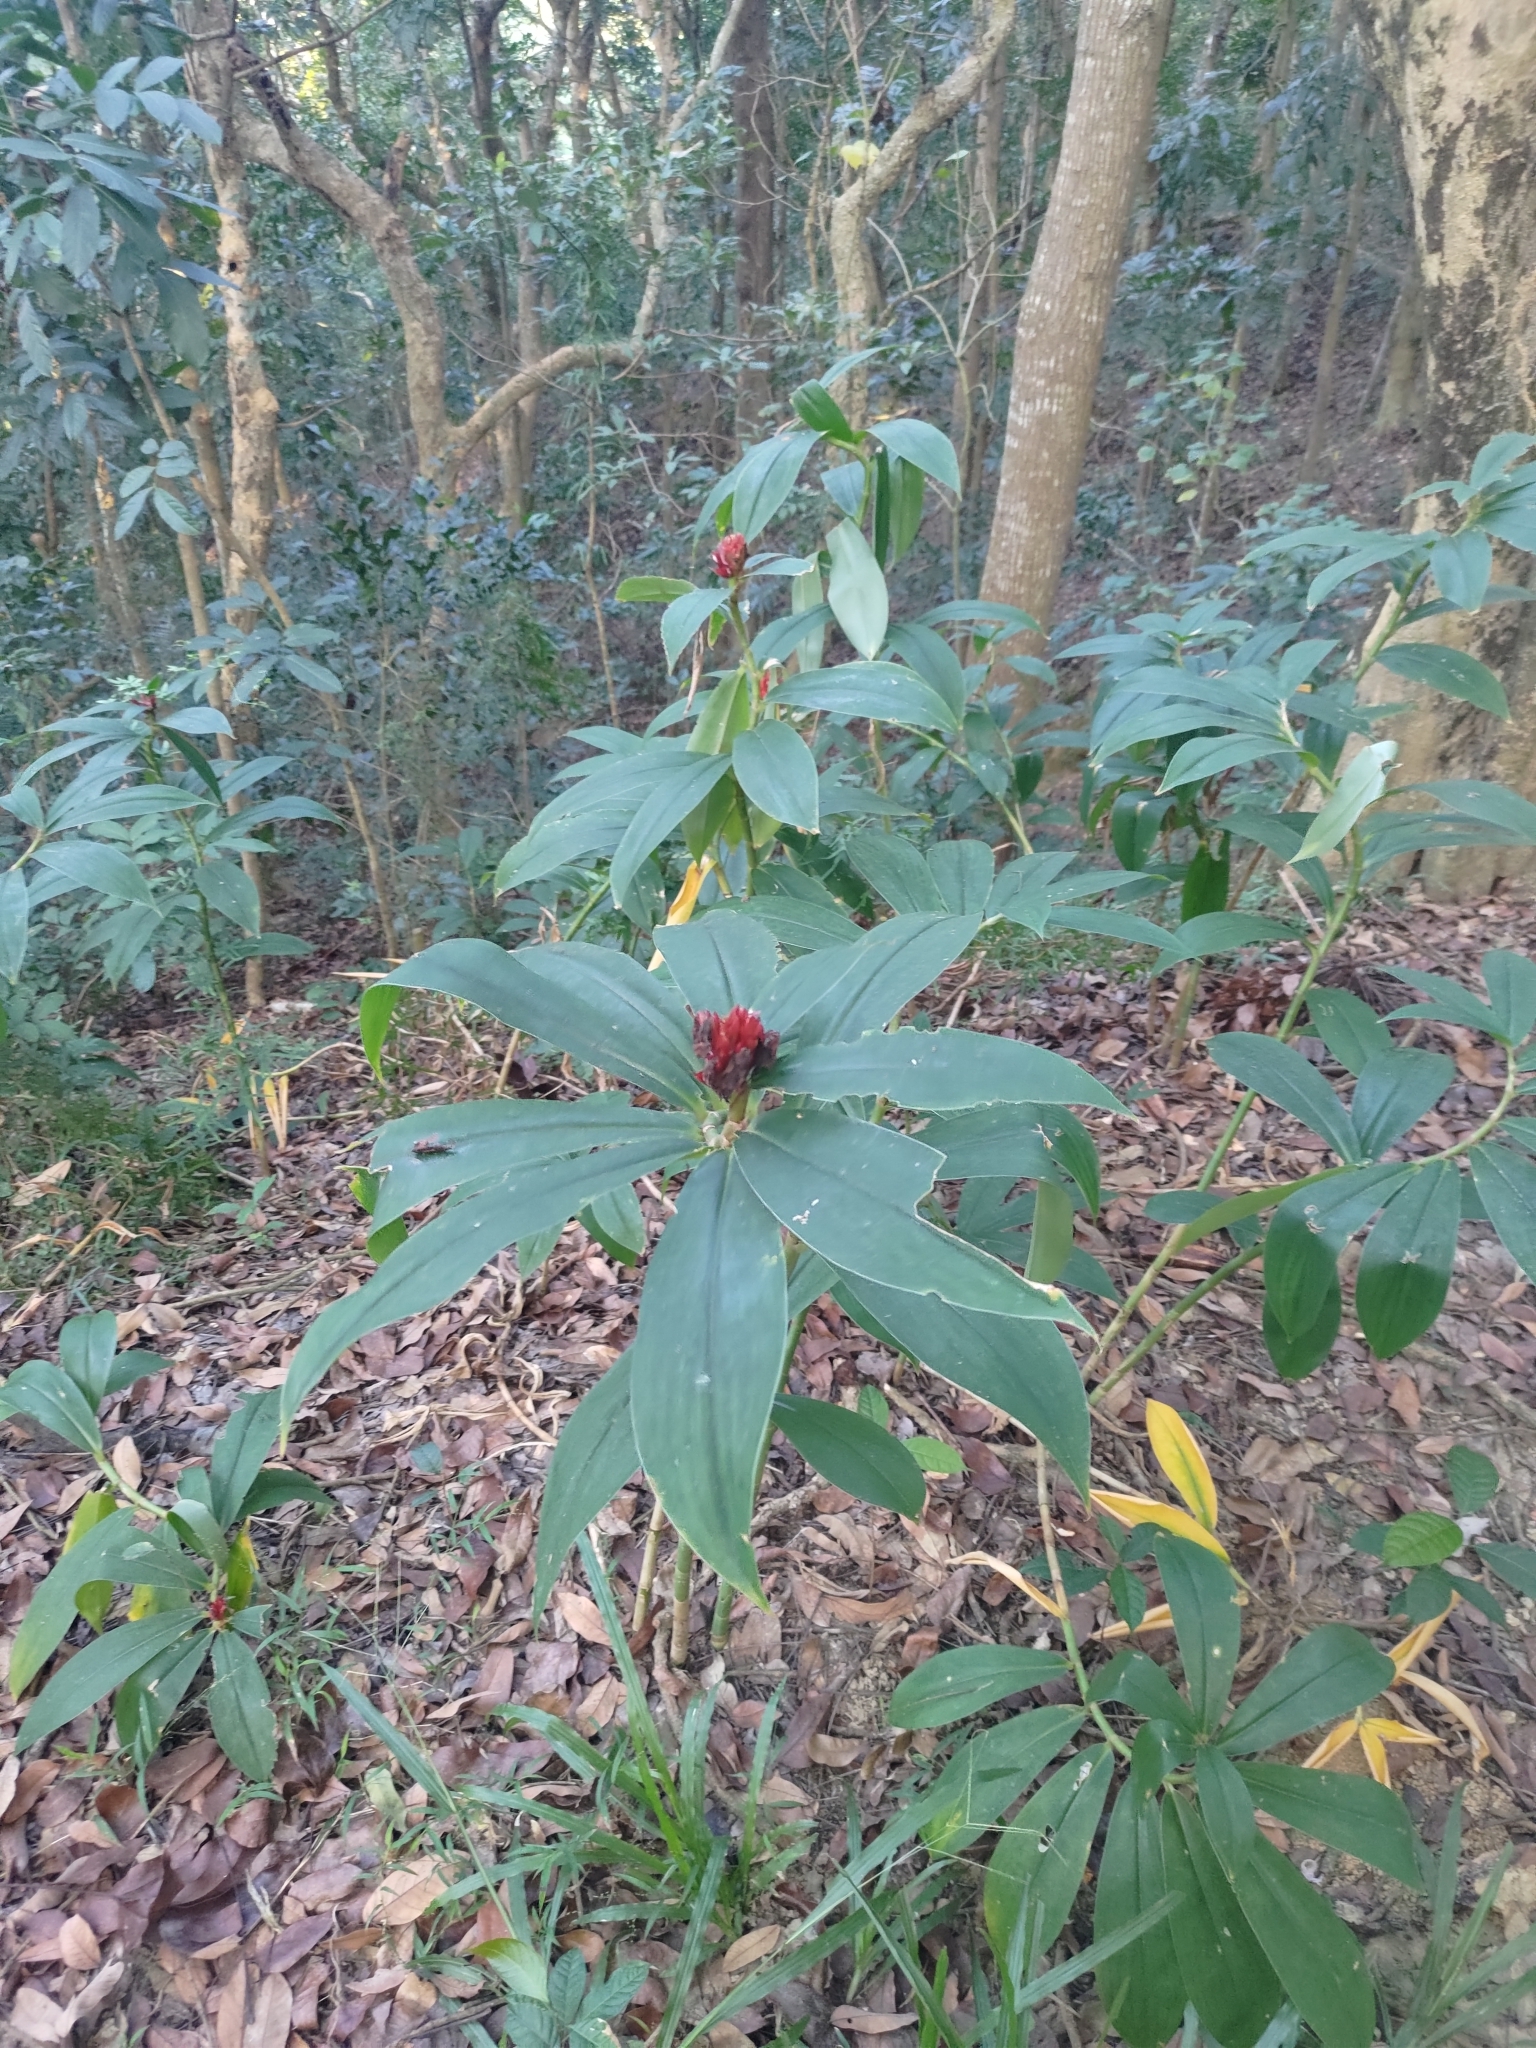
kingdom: Plantae
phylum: Tracheophyta
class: Liliopsida
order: Zingiberales
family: Costaceae
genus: Hellenia
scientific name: Hellenia speciosa
